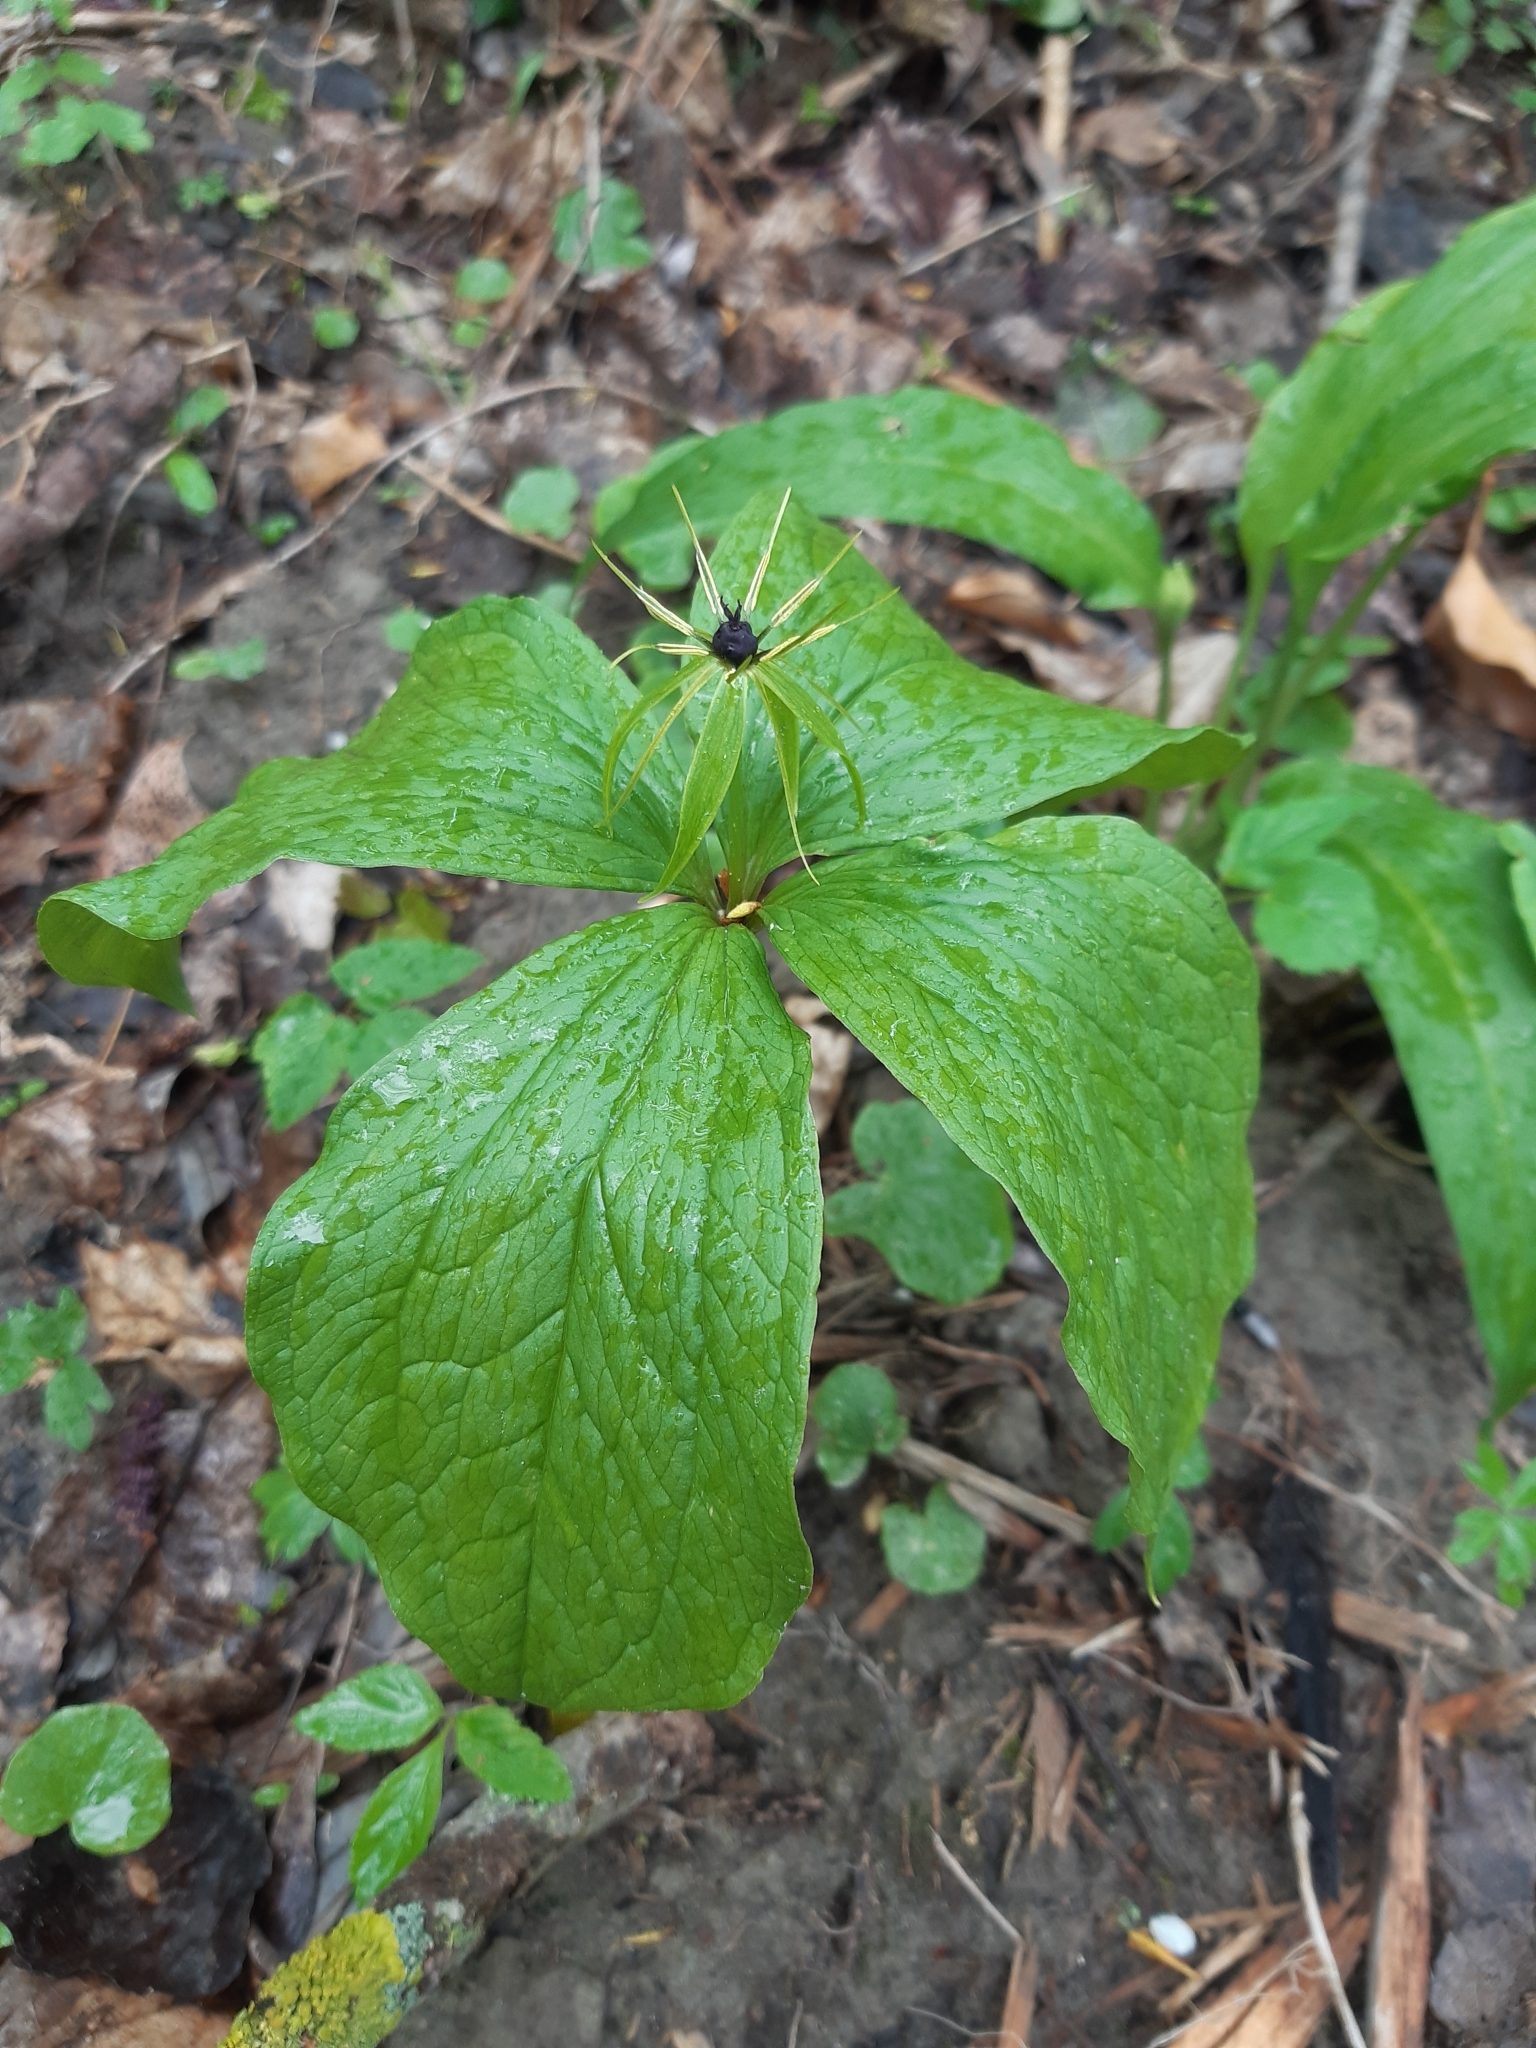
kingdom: Plantae
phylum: Tracheophyta
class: Liliopsida
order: Liliales
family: Melanthiaceae
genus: Paris
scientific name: Paris quadrifolia
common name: Herb-paris
